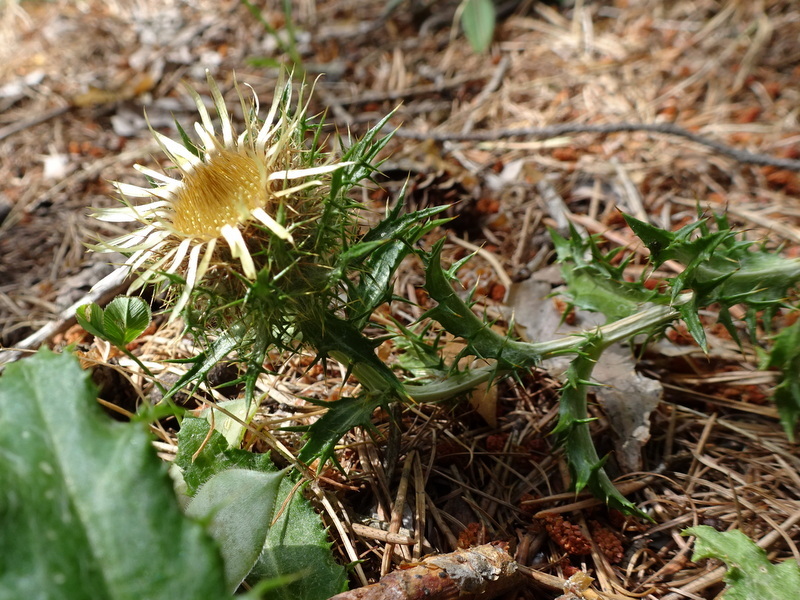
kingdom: Plantae
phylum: Tracheophyta
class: Magnoliopsida
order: Asterales
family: Asteraceae
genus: Carlina
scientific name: Carlina vulgaris
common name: Carline thistle
